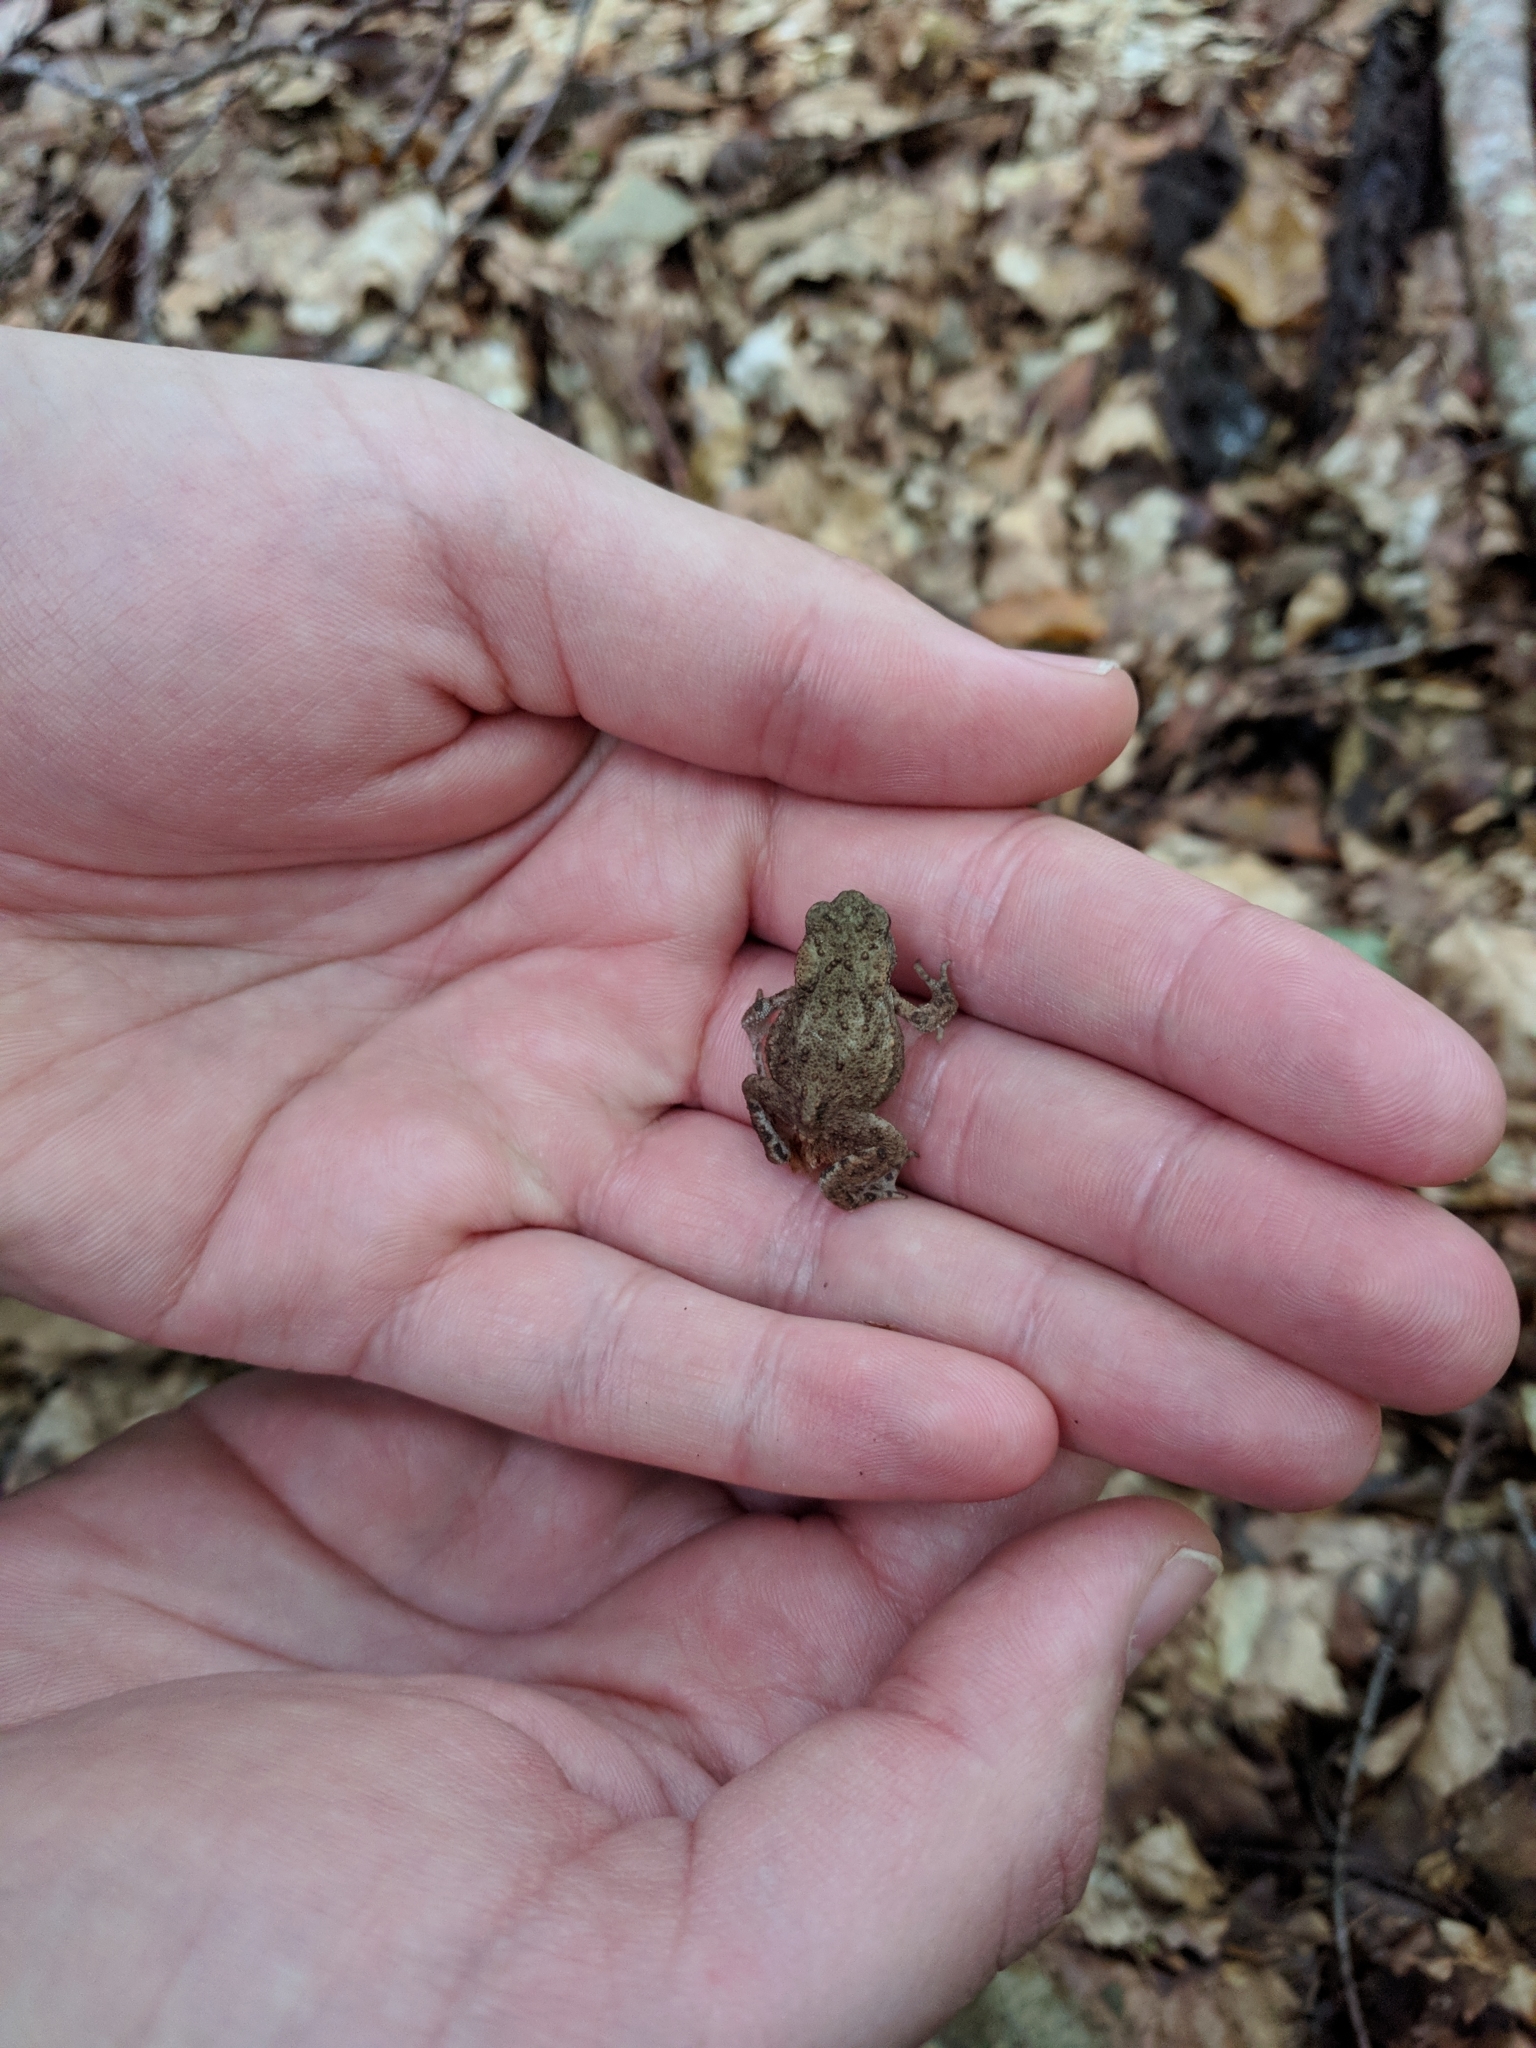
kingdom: Animalia
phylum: Chordata
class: Amphibia
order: Anura
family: Bufonidae
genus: Bufo
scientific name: Bufo bufo
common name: Common toad
